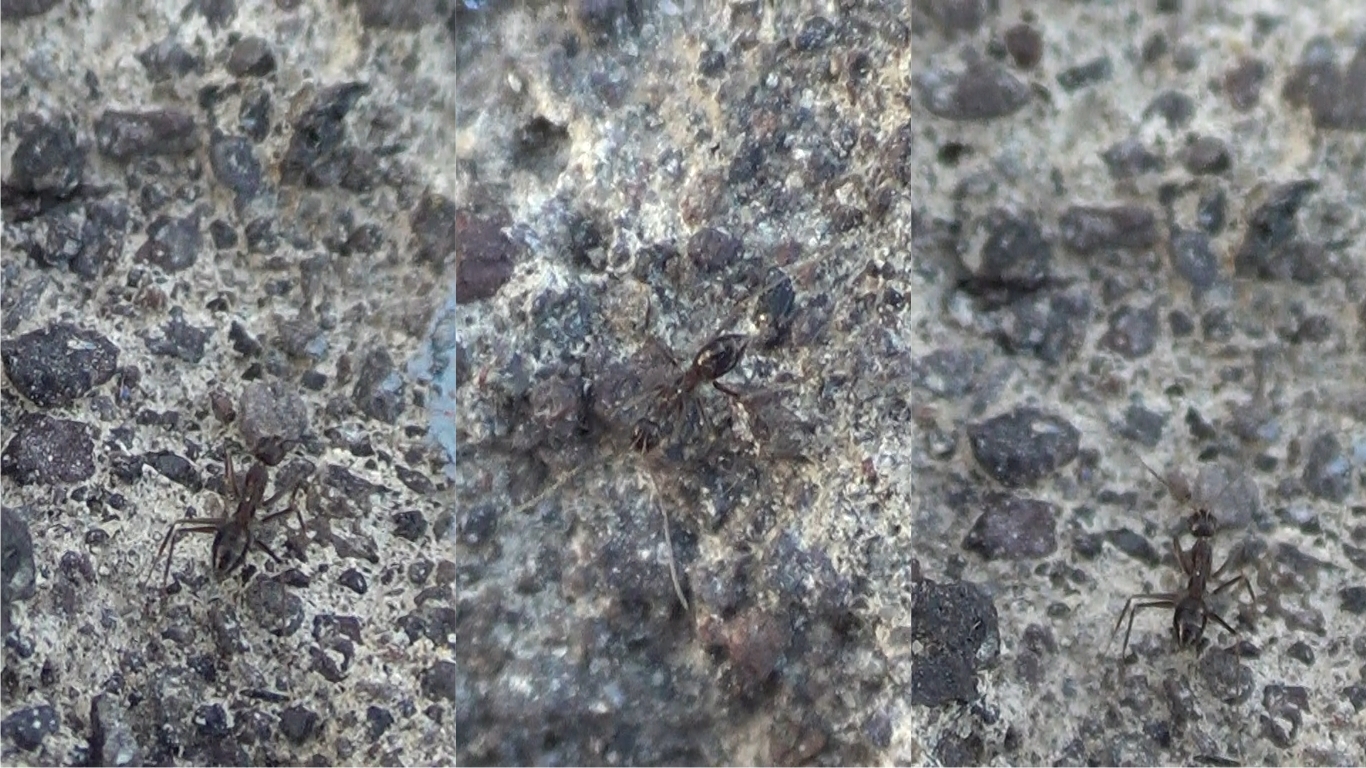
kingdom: Animalia
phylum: Arthropoda
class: Insecta
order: Hymenoptera
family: Formicidae
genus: Paratrechina
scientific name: Paratrechina longicornis
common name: Longhorned crazy ant
